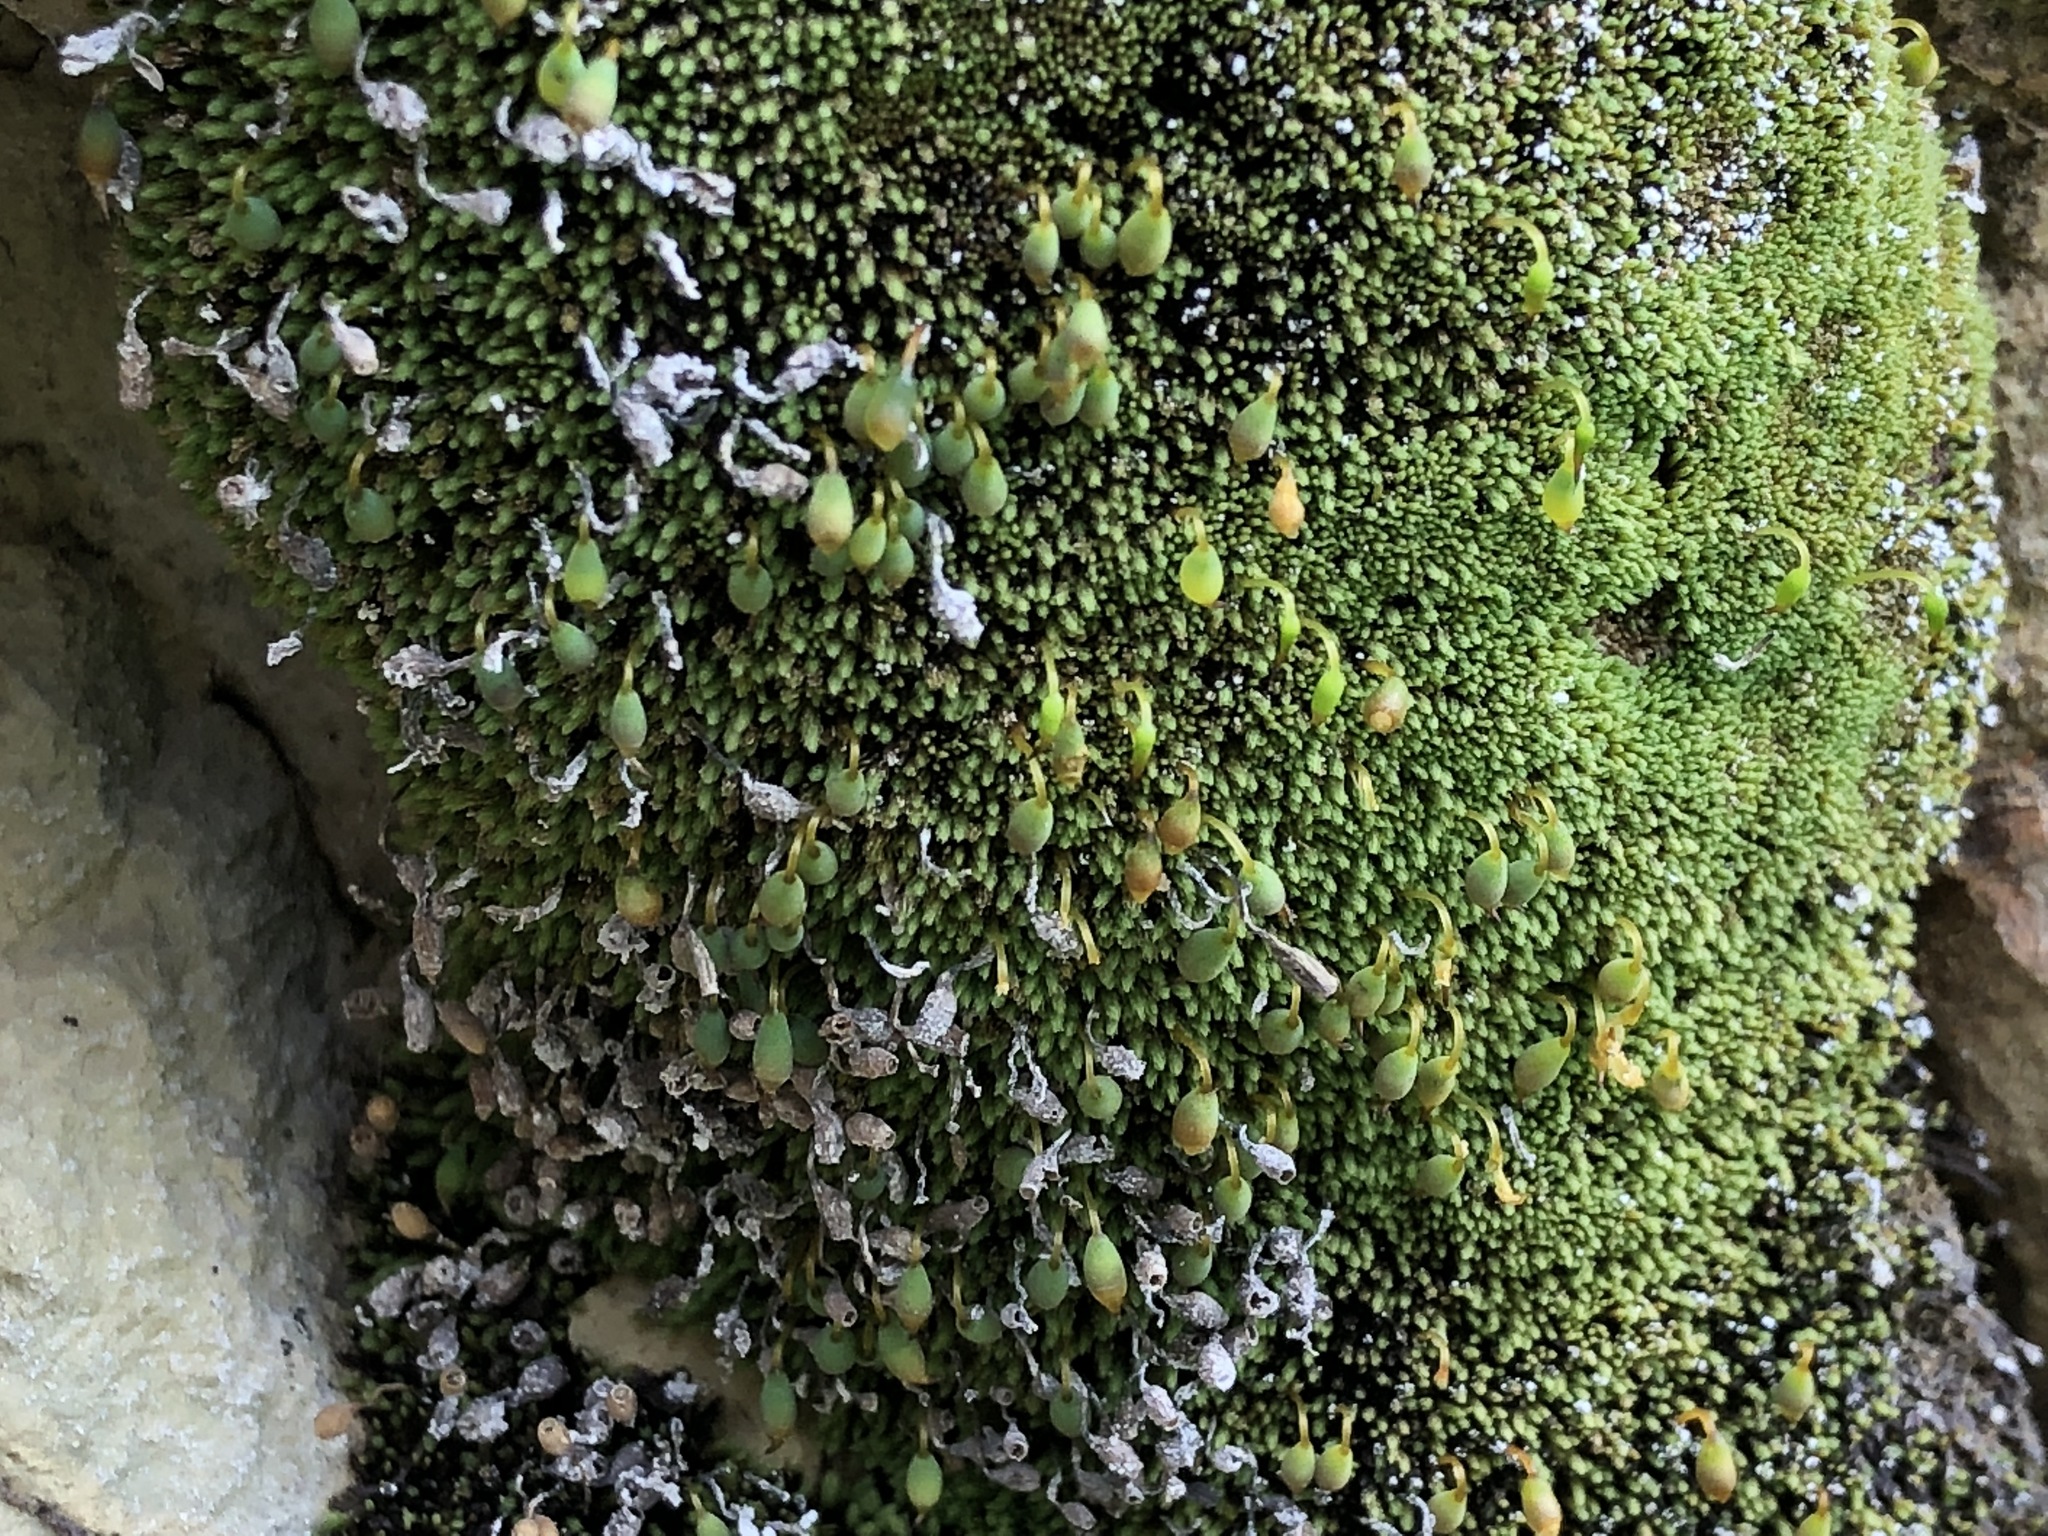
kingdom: Plantae
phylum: Bryophyta
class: Bryopsida
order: Bryales
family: Bryaceae
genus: Bryum
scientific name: Bryum argenteum
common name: Silver-moss
